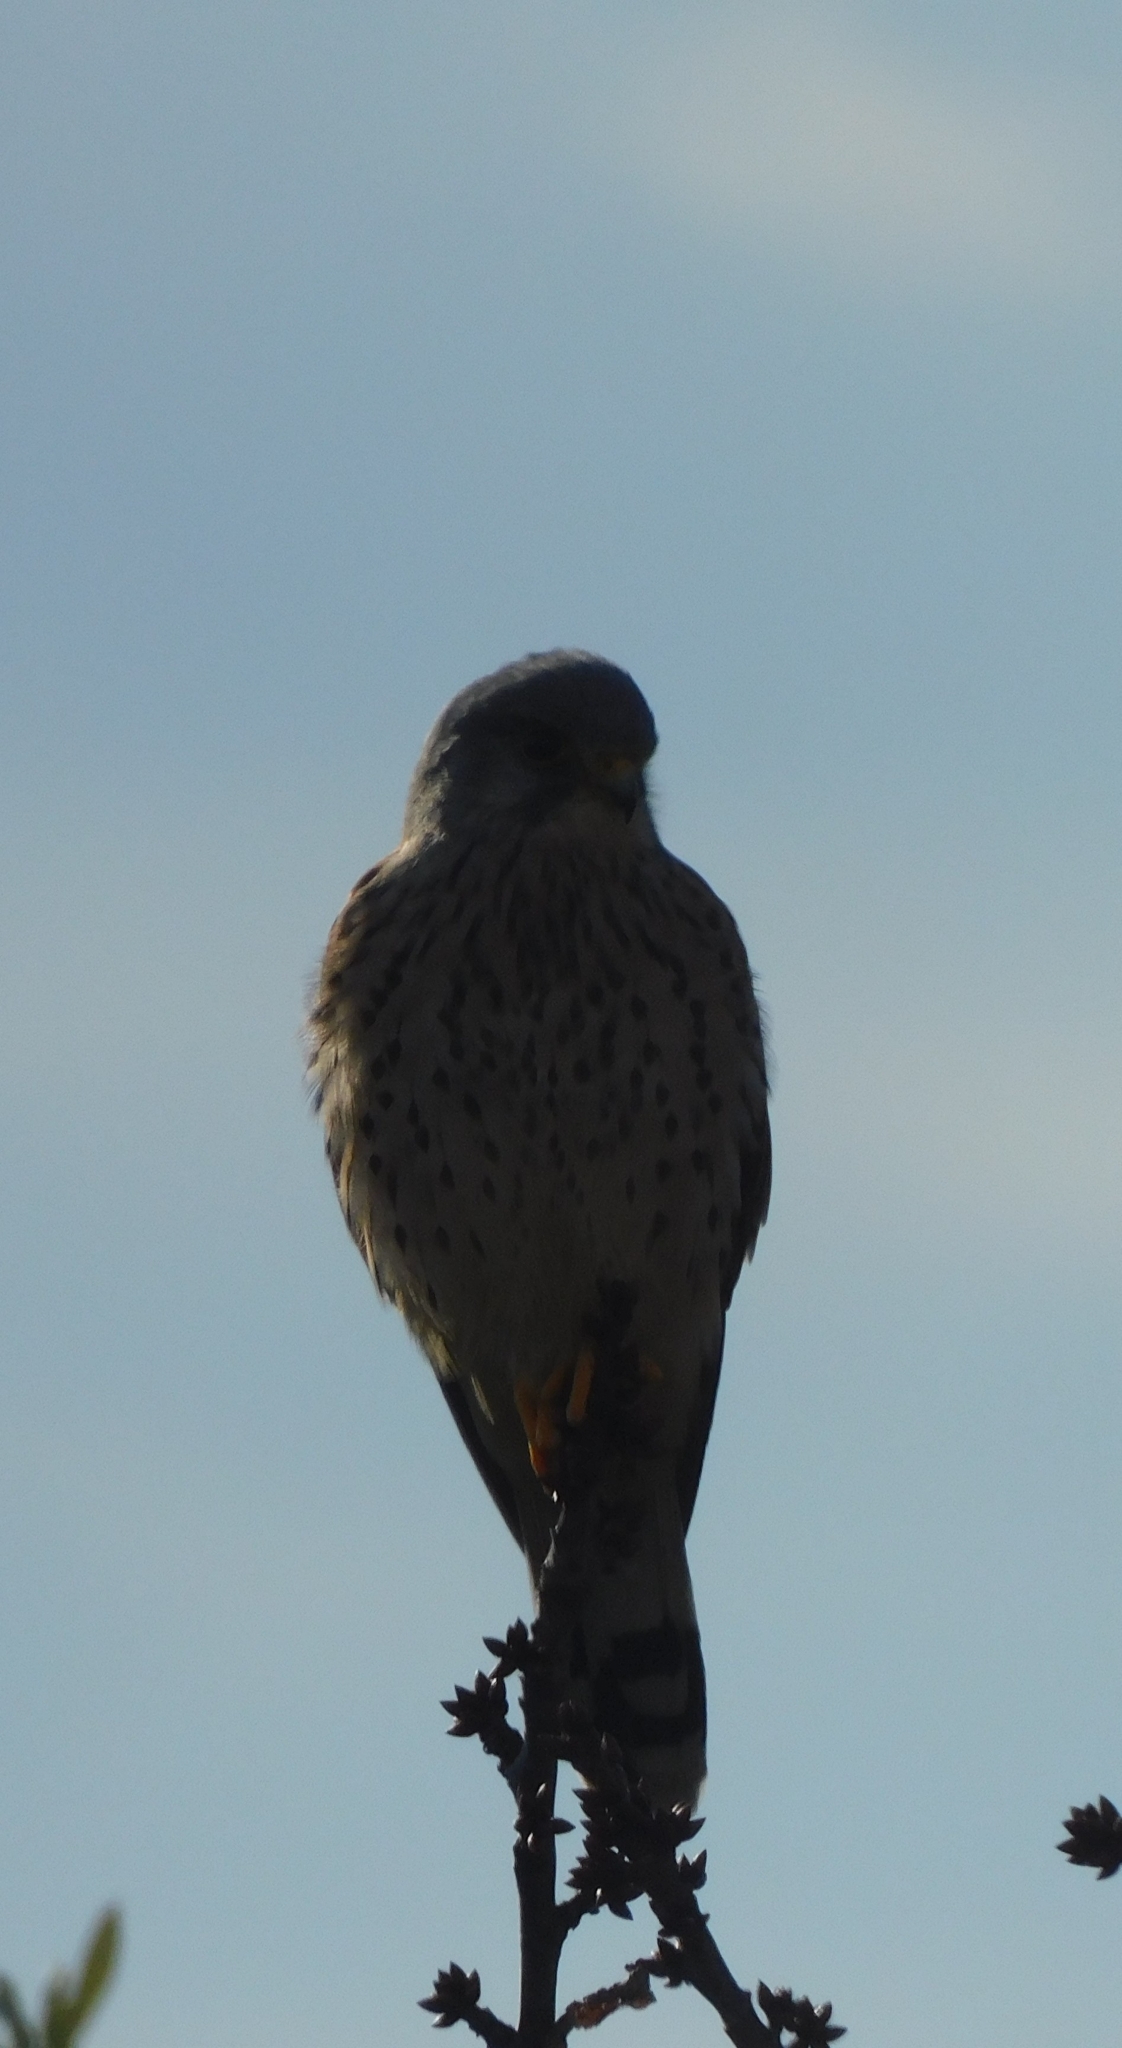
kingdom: Animalia
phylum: Chordata
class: Aves
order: Falconiformes
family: Falconidae
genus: Falco
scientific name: Falco tinnunculus
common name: Common kestrel
